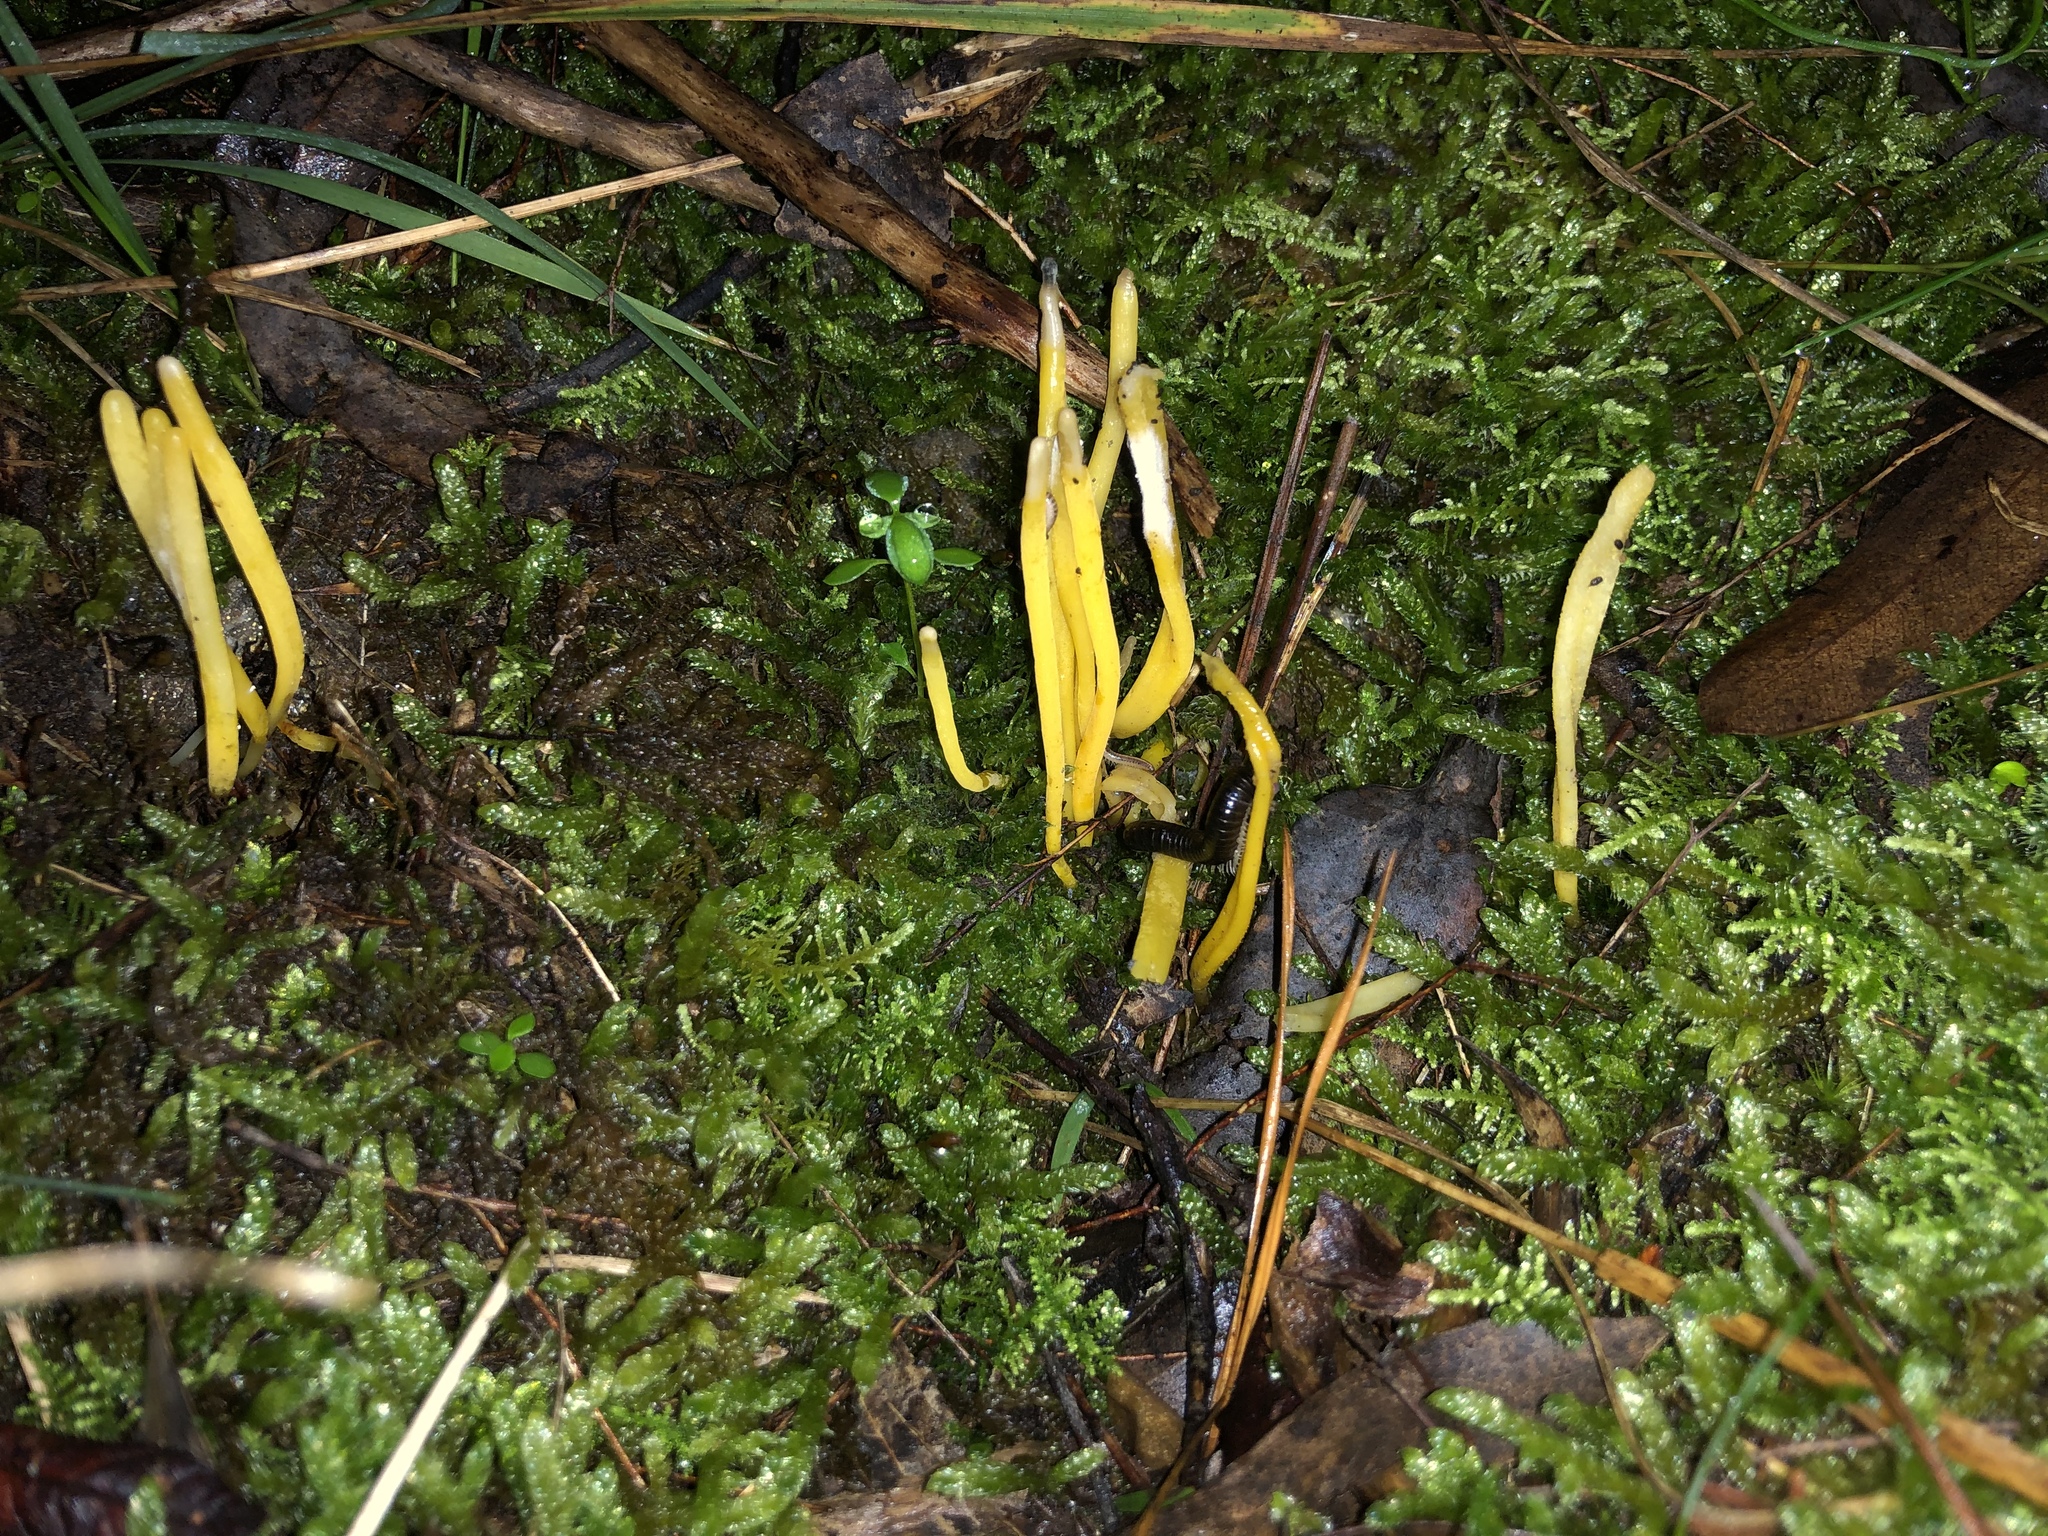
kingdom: Fungi
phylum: Basidiomycota
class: Agaricomycetes
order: Agaricales
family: Clavariaceae
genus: Clavulinopsis
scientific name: Clavulinopsis amoena
